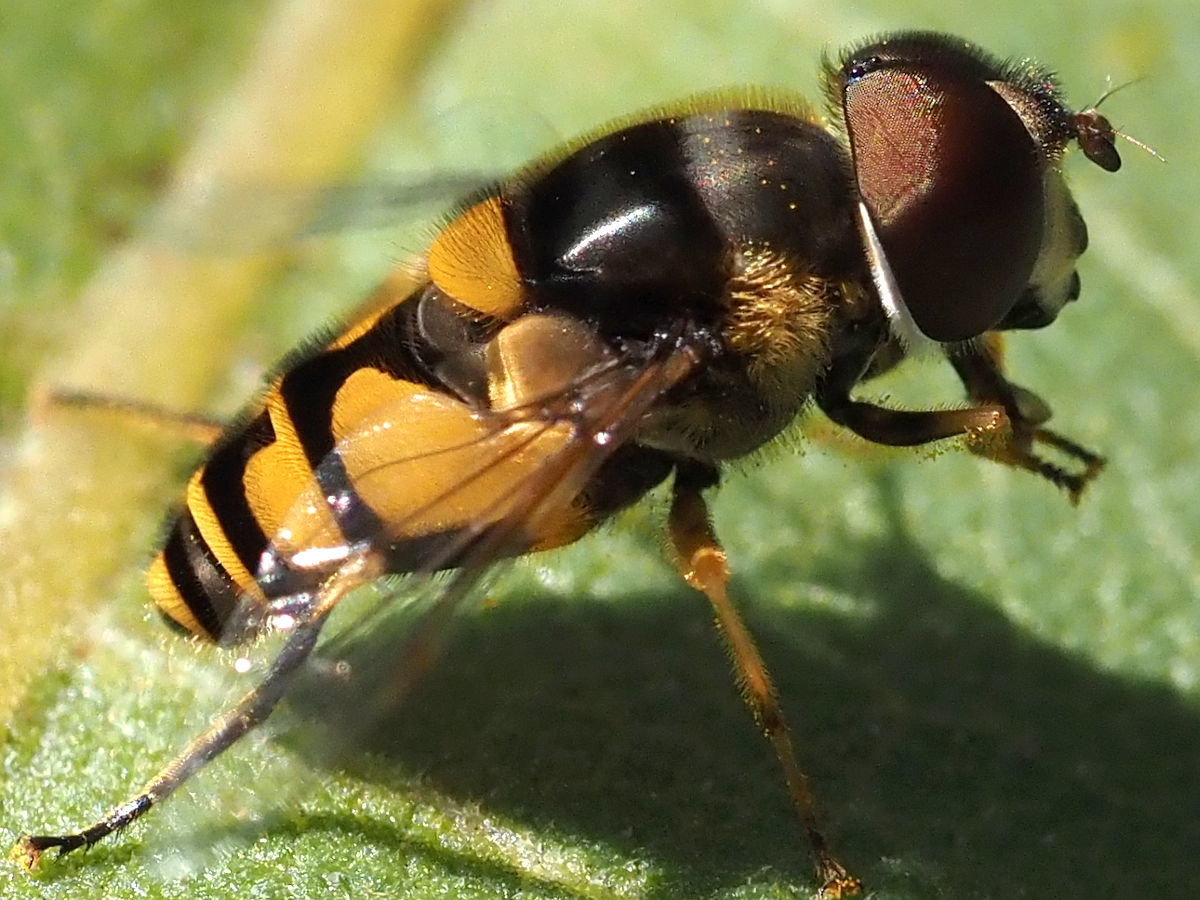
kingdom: Animalia
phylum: Arthropoda
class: Insecta
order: Diptera
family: Syrphidae
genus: Eristalis
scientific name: Eristalis transversa
